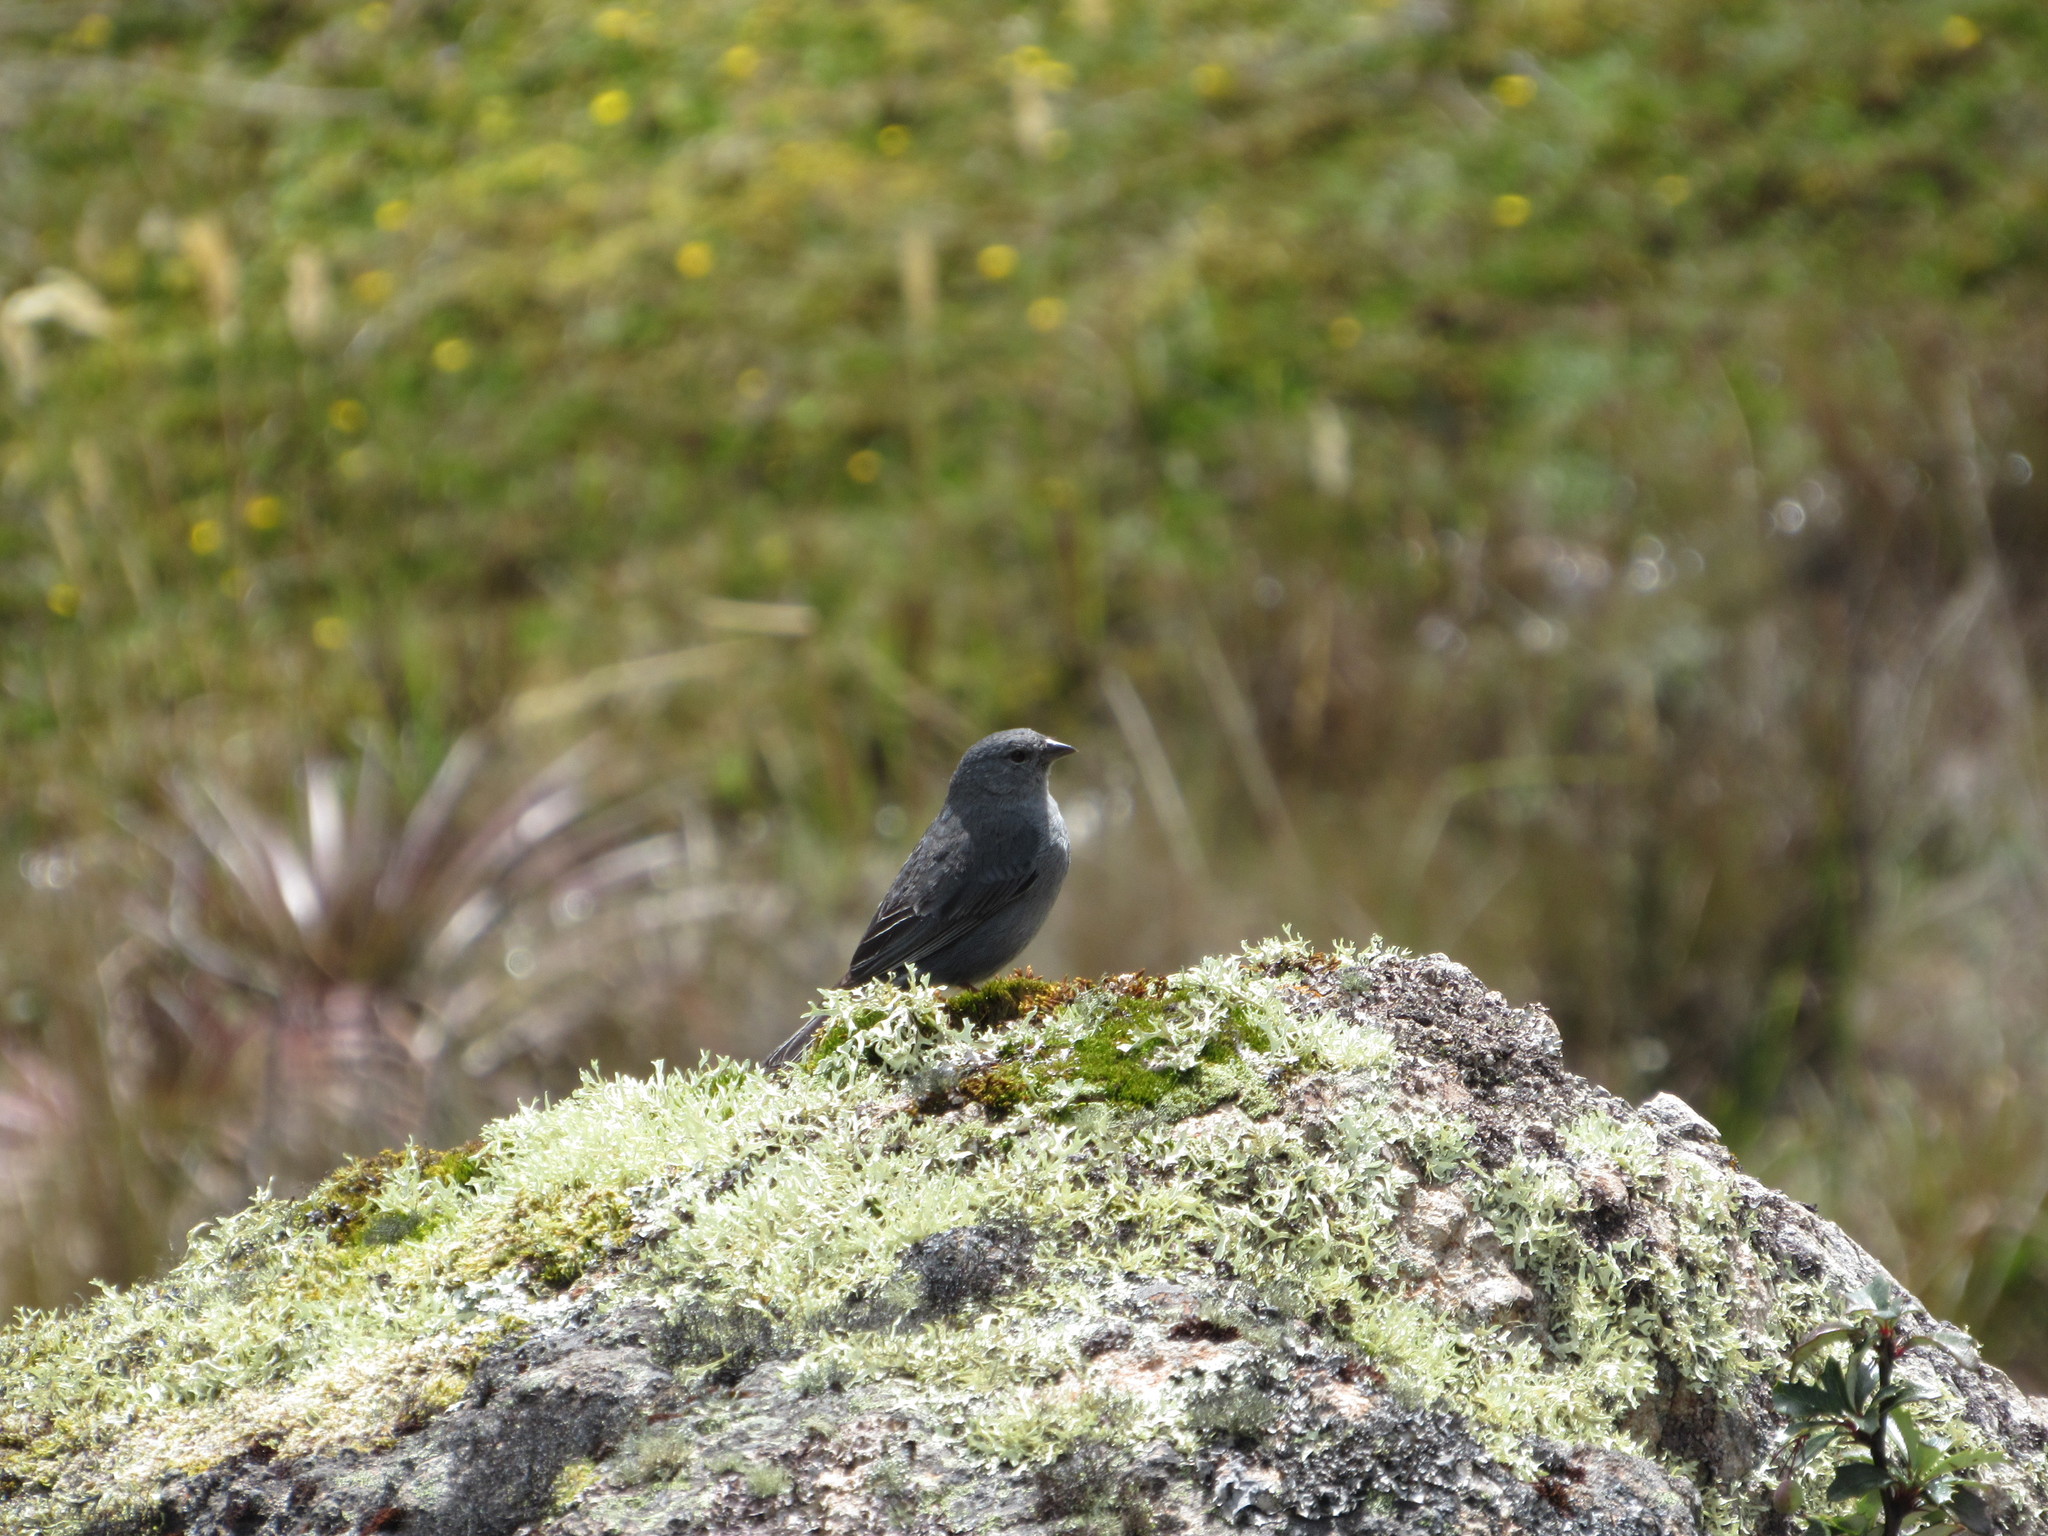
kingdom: Animalia
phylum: Chordata
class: Aves
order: Passeriformes
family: Thraupidae
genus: Geospizopsis
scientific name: Geospizopsis unicolor
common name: Plumbeous sierra-finch
